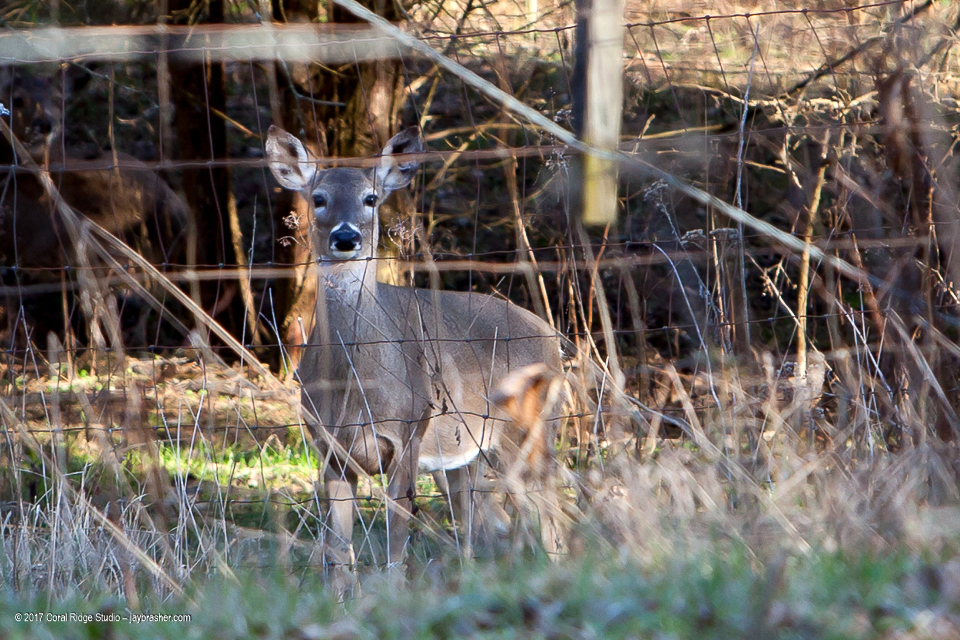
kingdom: Animalia
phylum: Chordata
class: Mammalia
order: Artiodactyla
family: Cervidae
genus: Odocoileus
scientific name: Odocoileus virginianus
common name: White-tailed deer
